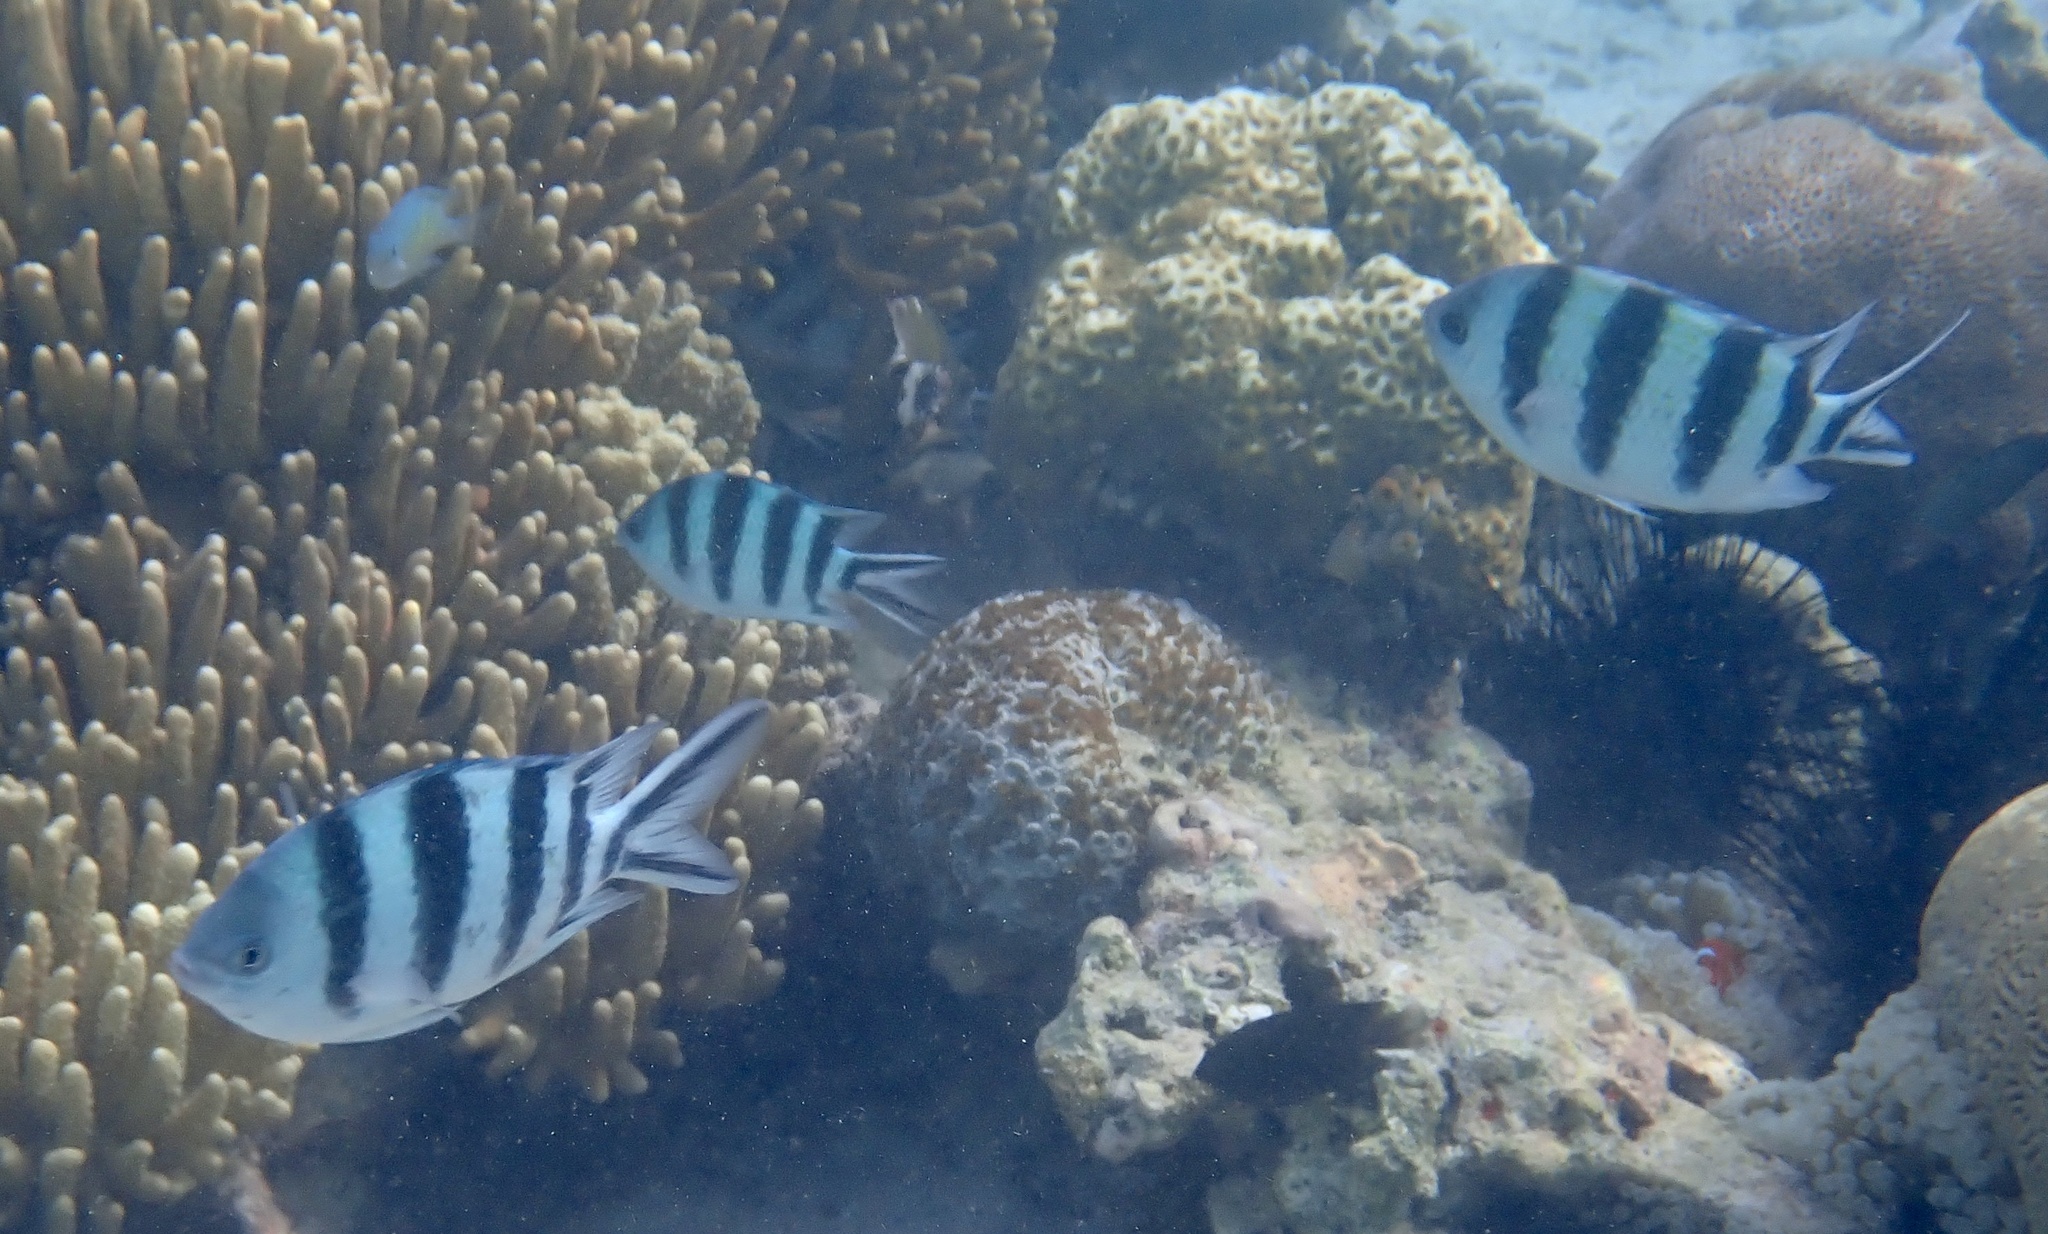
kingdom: Animalia
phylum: Chordata
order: Perciformes
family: Pomacentridae
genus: Abudefduf
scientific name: Abudefduf sexfasciatus
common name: Scissortail sergeant
